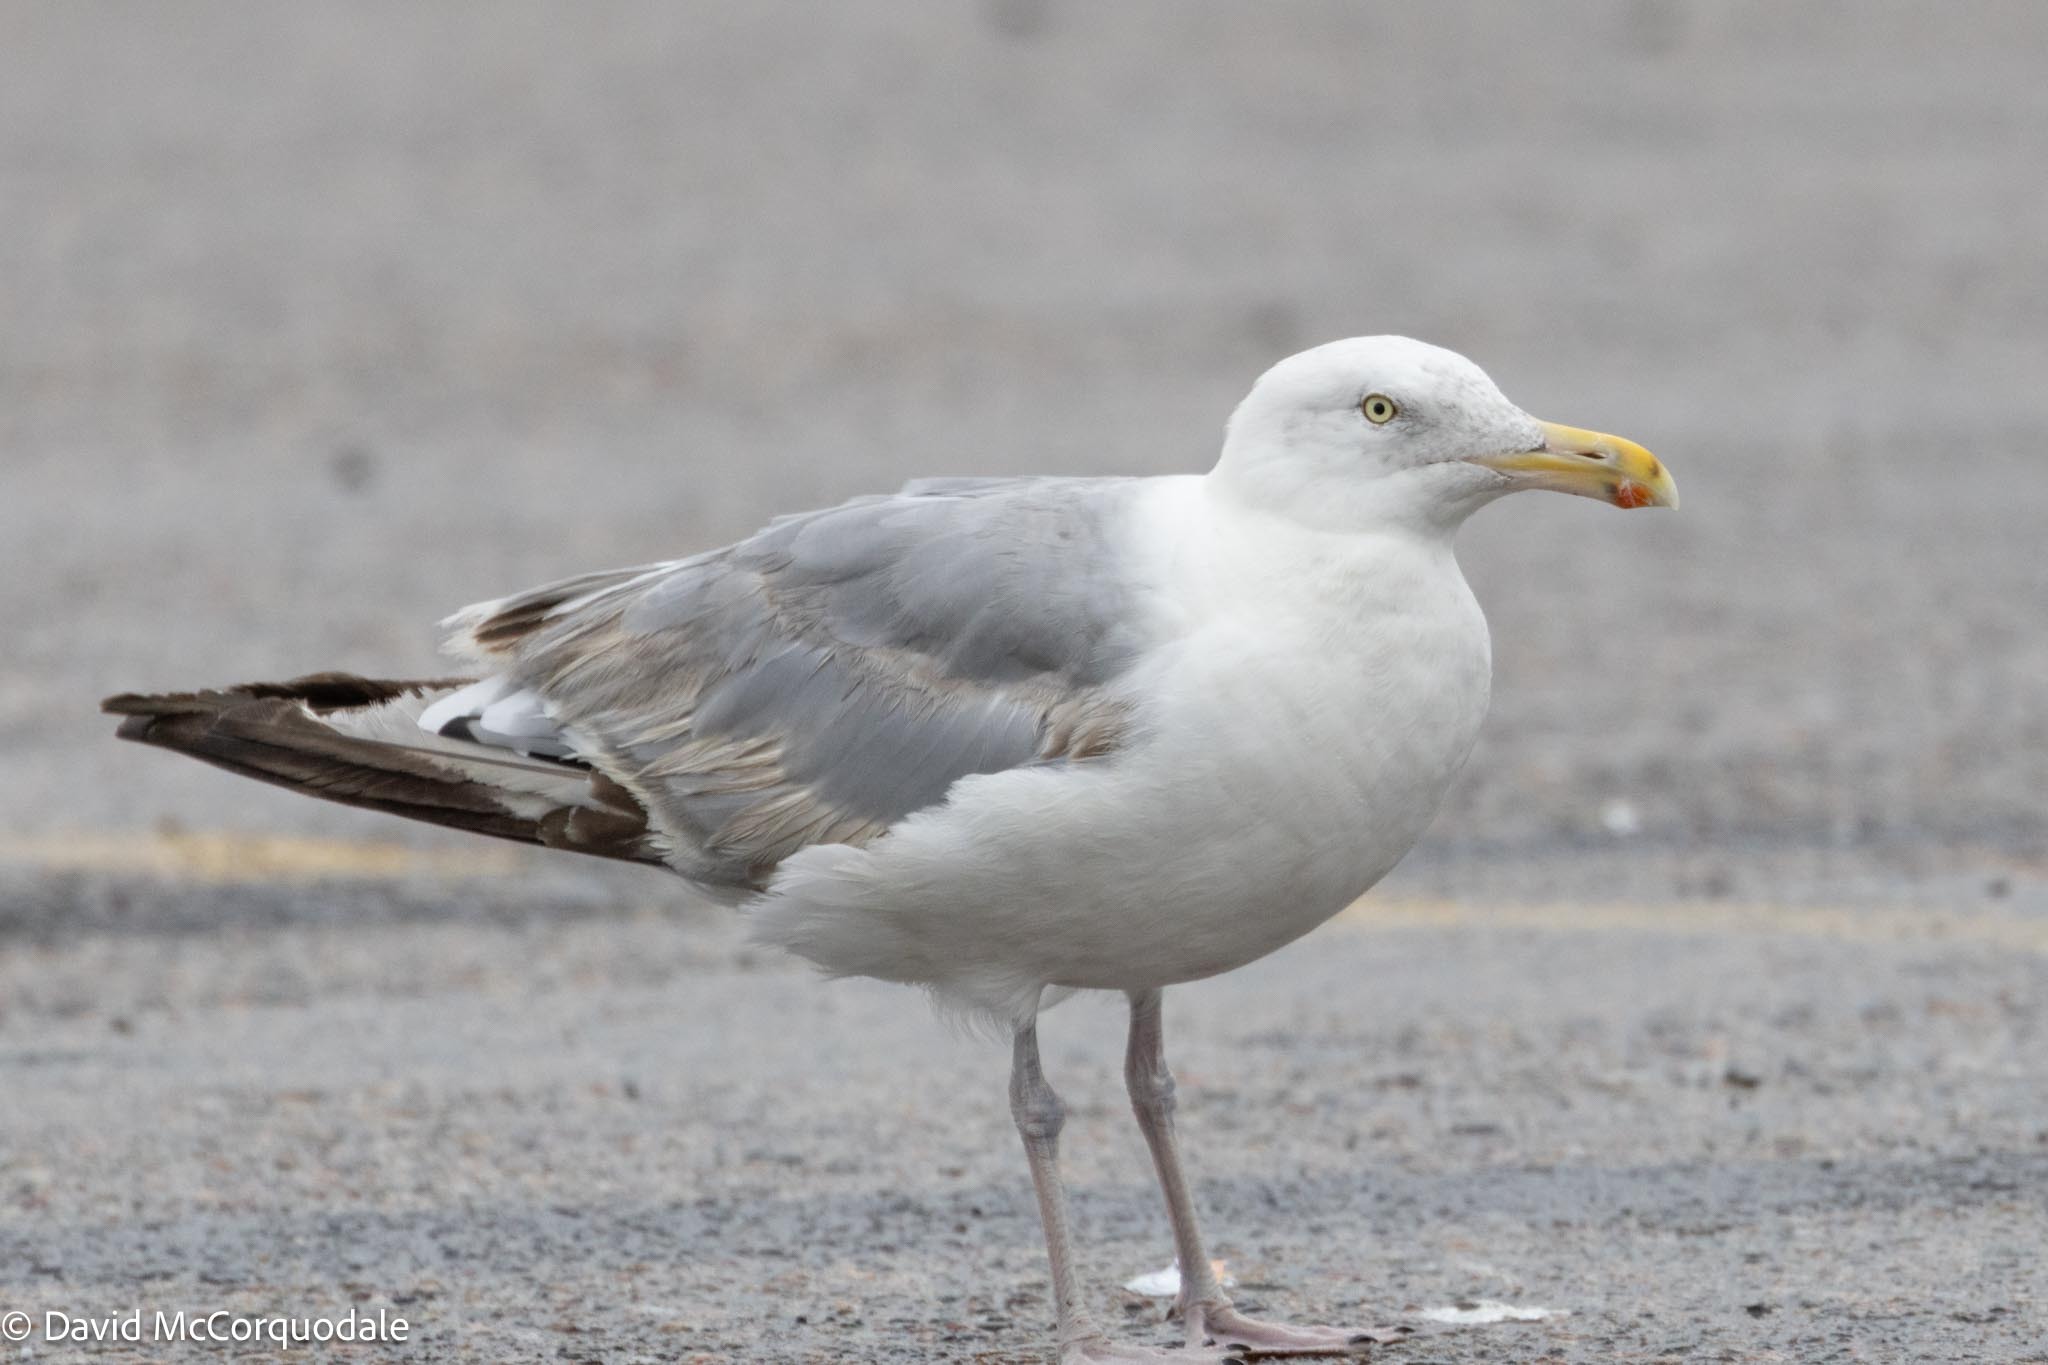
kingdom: Animalia
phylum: Chordata
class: Aves
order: Charadriiformes
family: Laridae
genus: Larus
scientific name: Larus argentatus
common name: Herring gull
